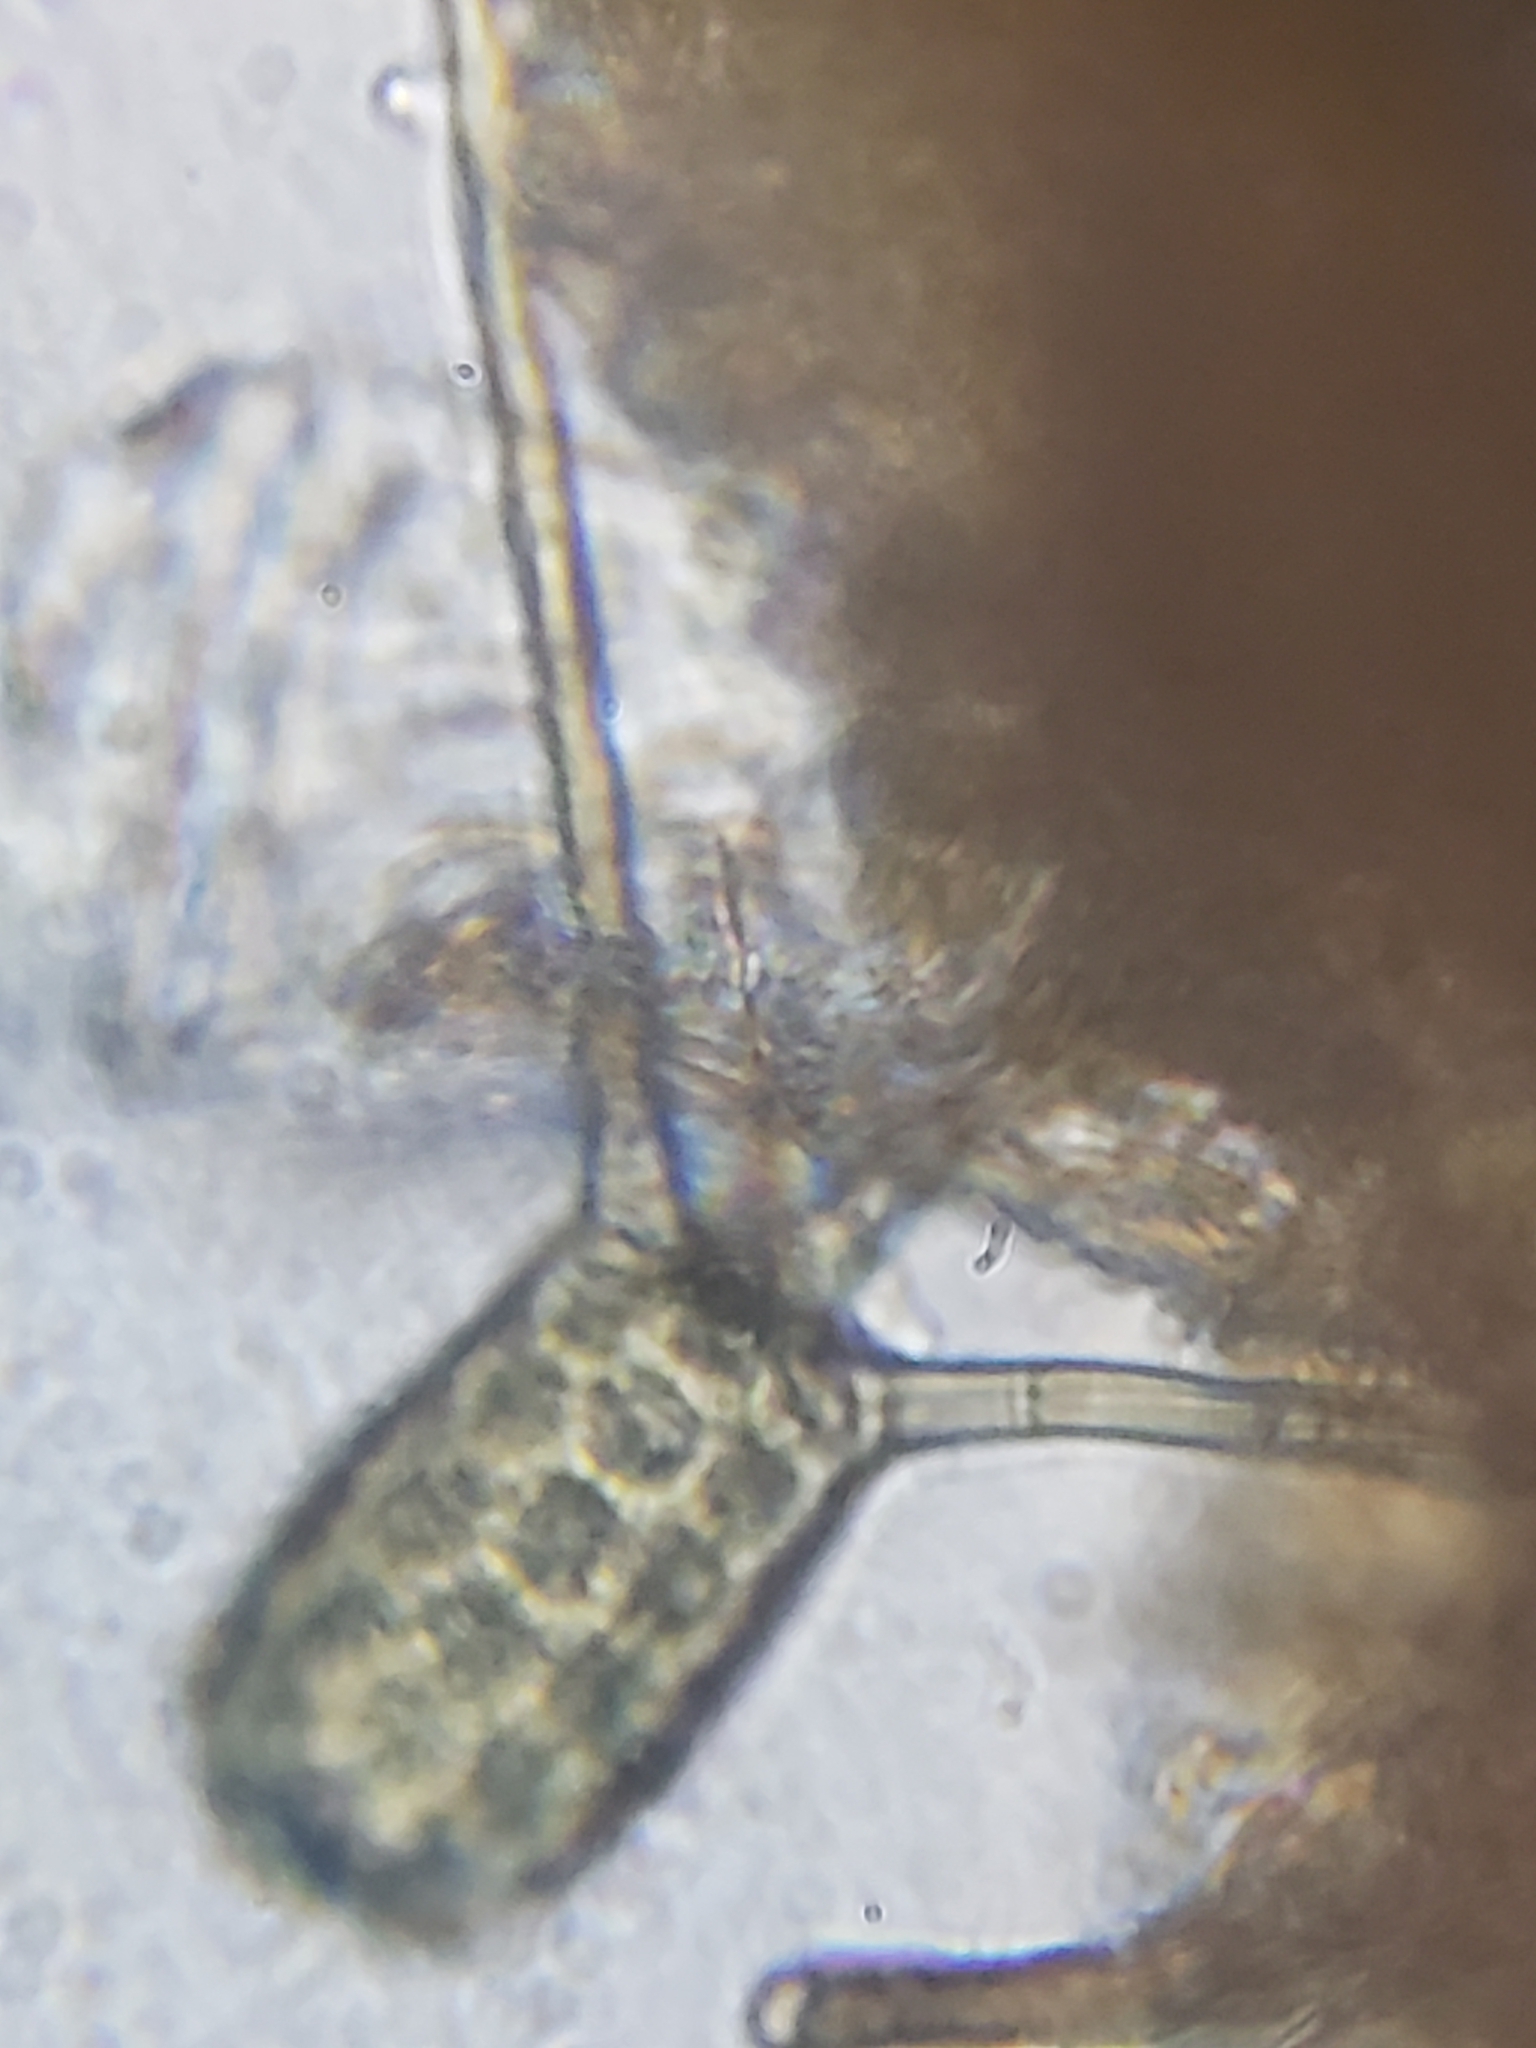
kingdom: Fungi
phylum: Ascomycota
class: Dothideomycetes
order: Pleosporales
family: Tetraplosphaeriaceae
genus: Tetraploa
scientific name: Tetraploa aristata
